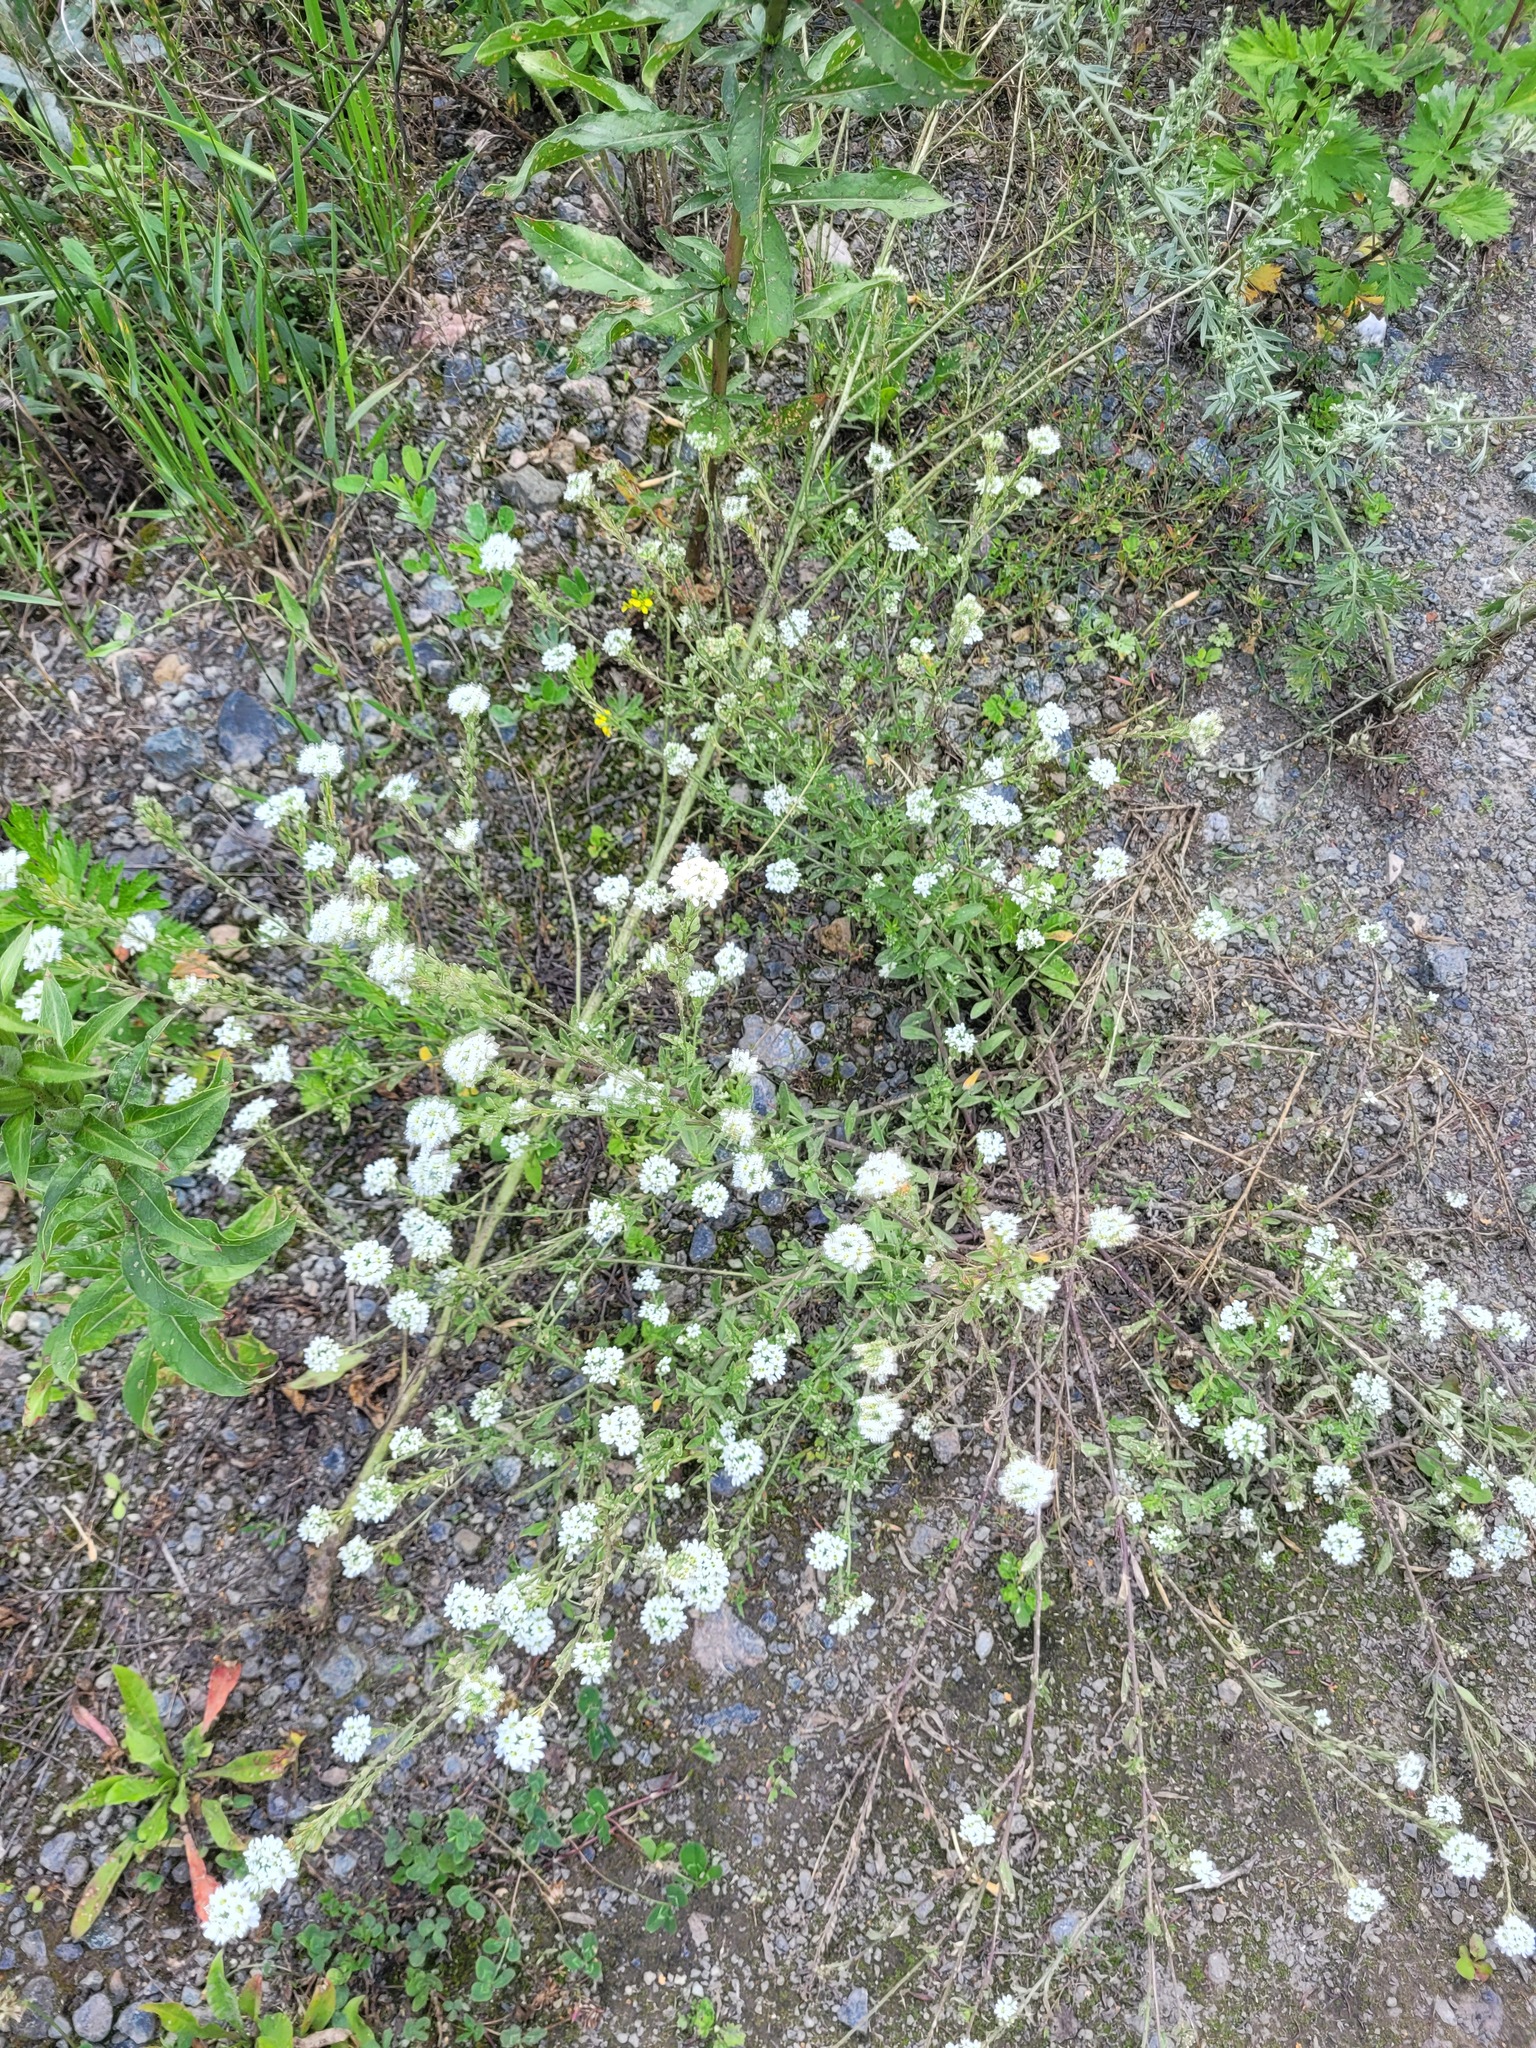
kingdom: Plantae
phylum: Tracheophyta
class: Magnoliopsida
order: Brassicales
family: Brassicaceae
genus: Berteroa
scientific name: Berteroa incana
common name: Hoary alison
